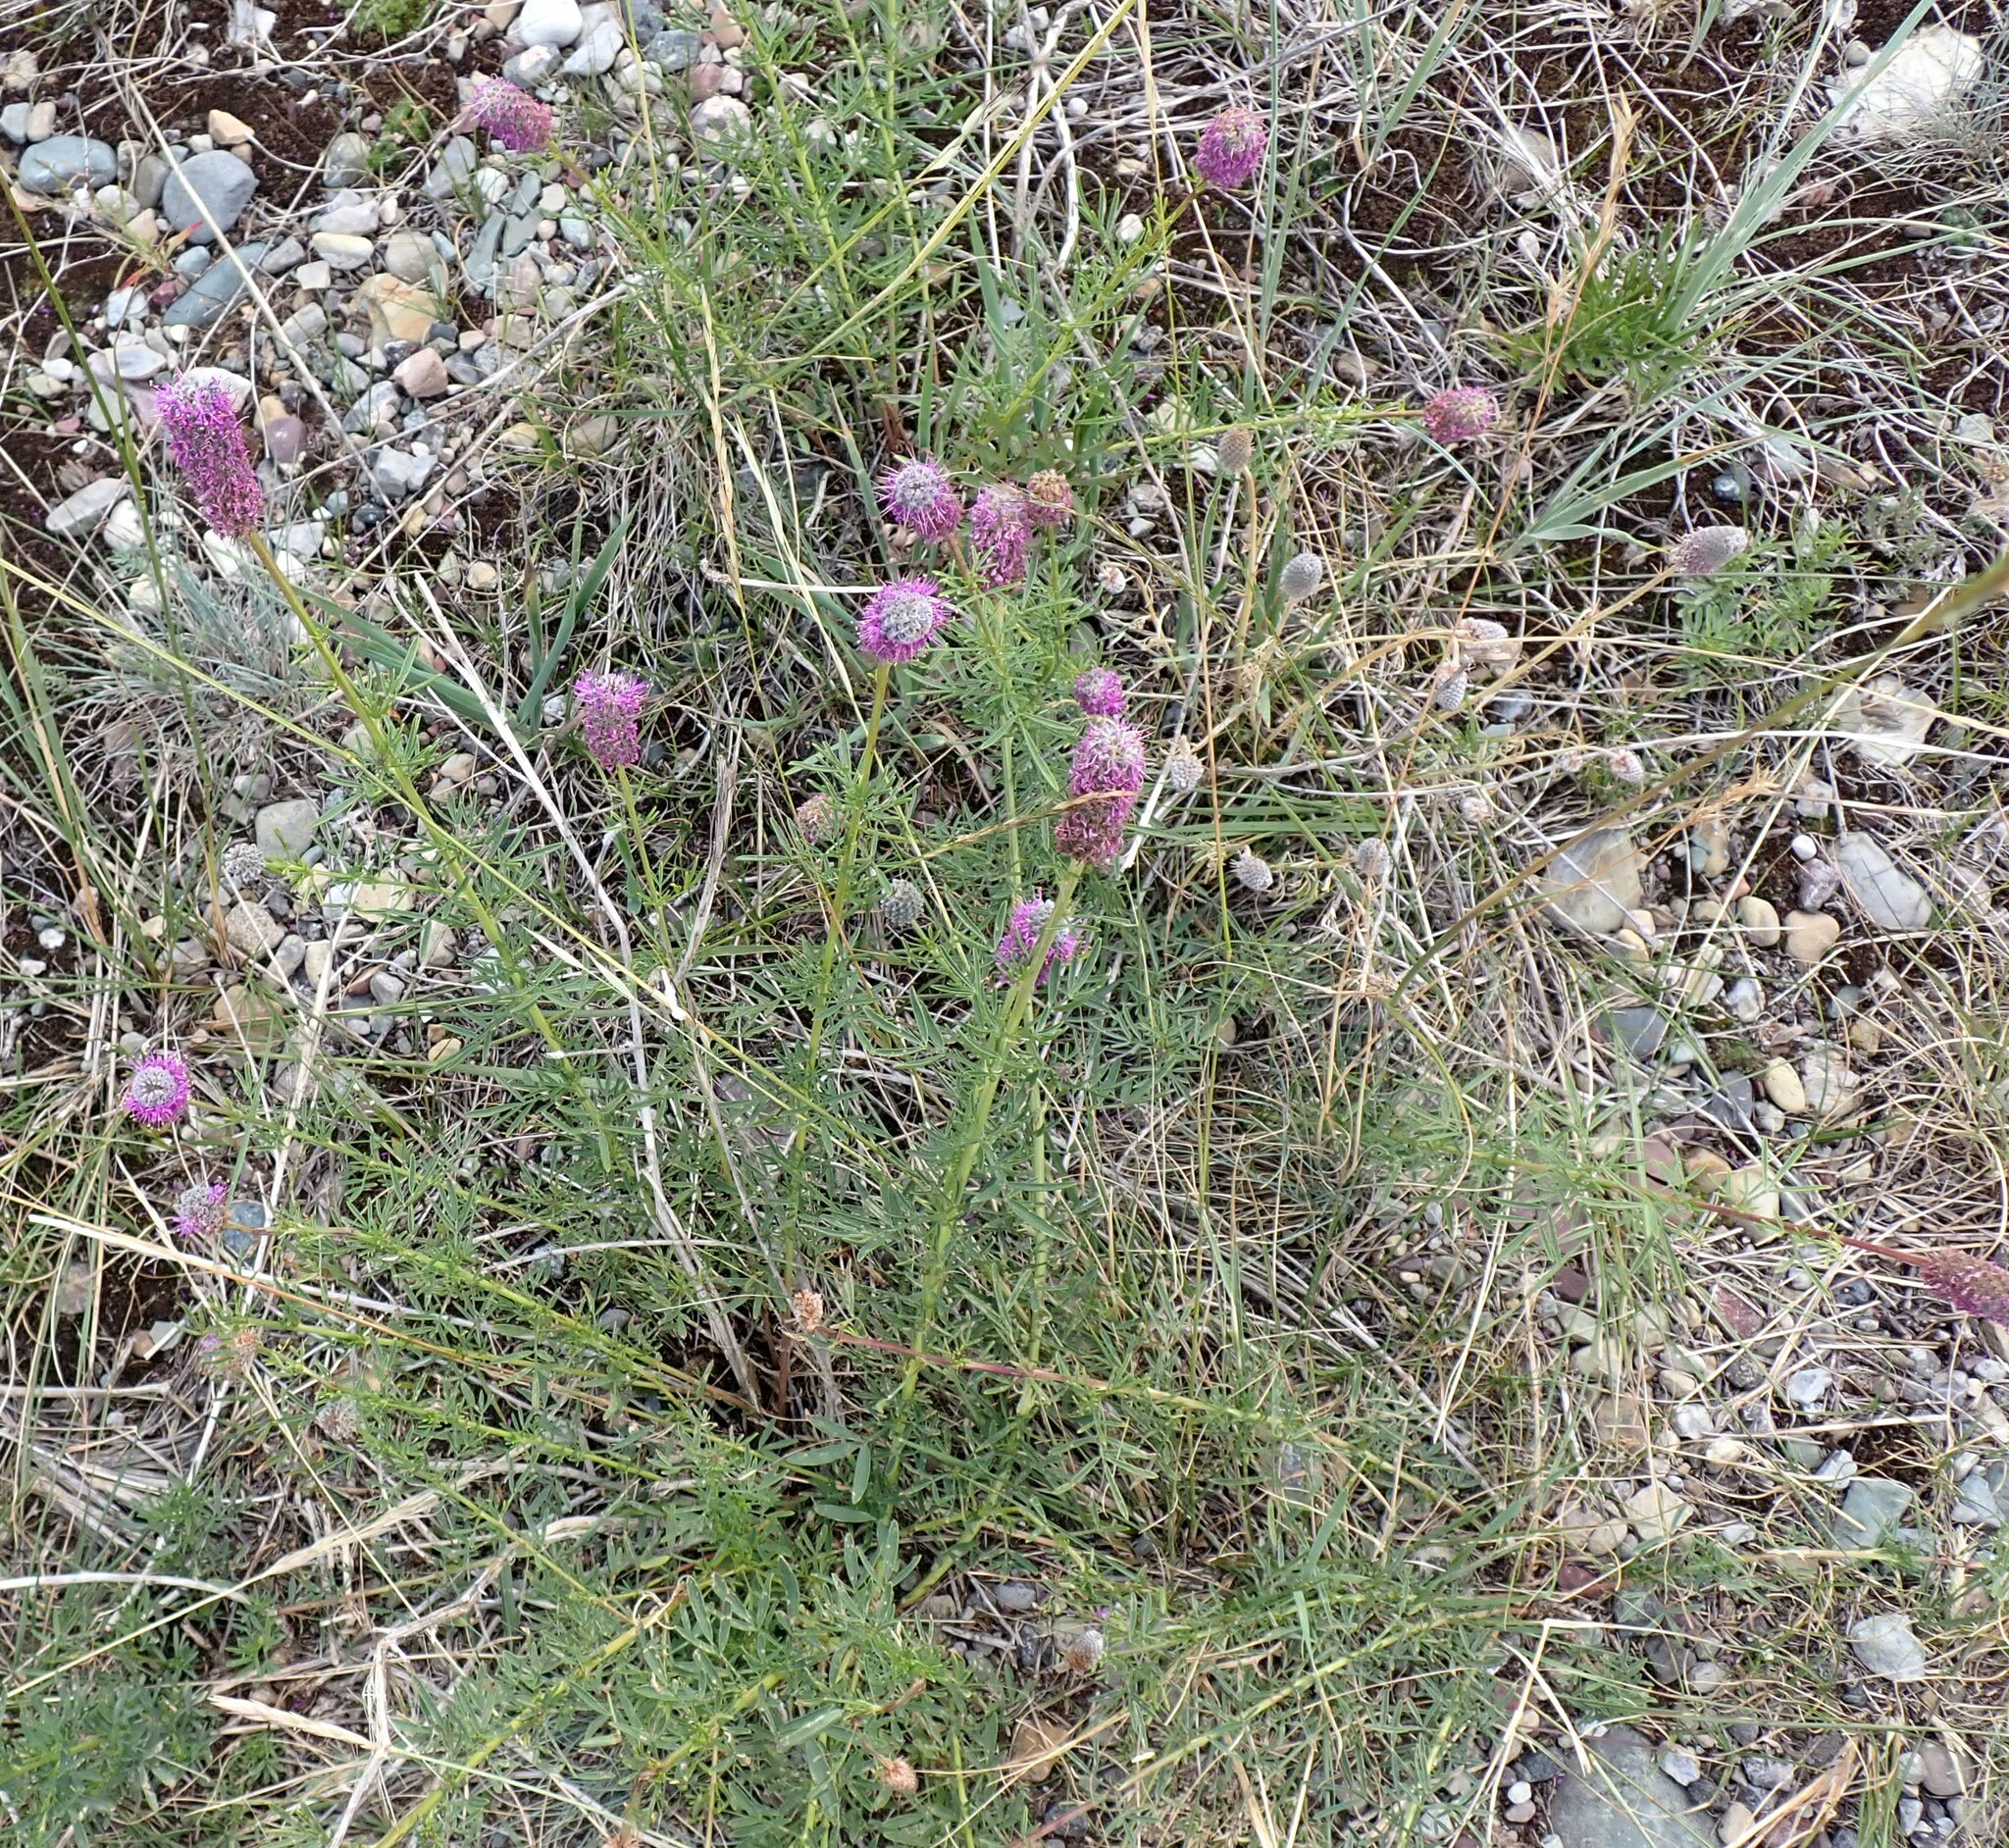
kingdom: Plantae
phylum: Tracheophyta
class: Magnoliopsida
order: Fabales
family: Fabaceae
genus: Dalea
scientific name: Dalea purpurea
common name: Purple prairie-clover
